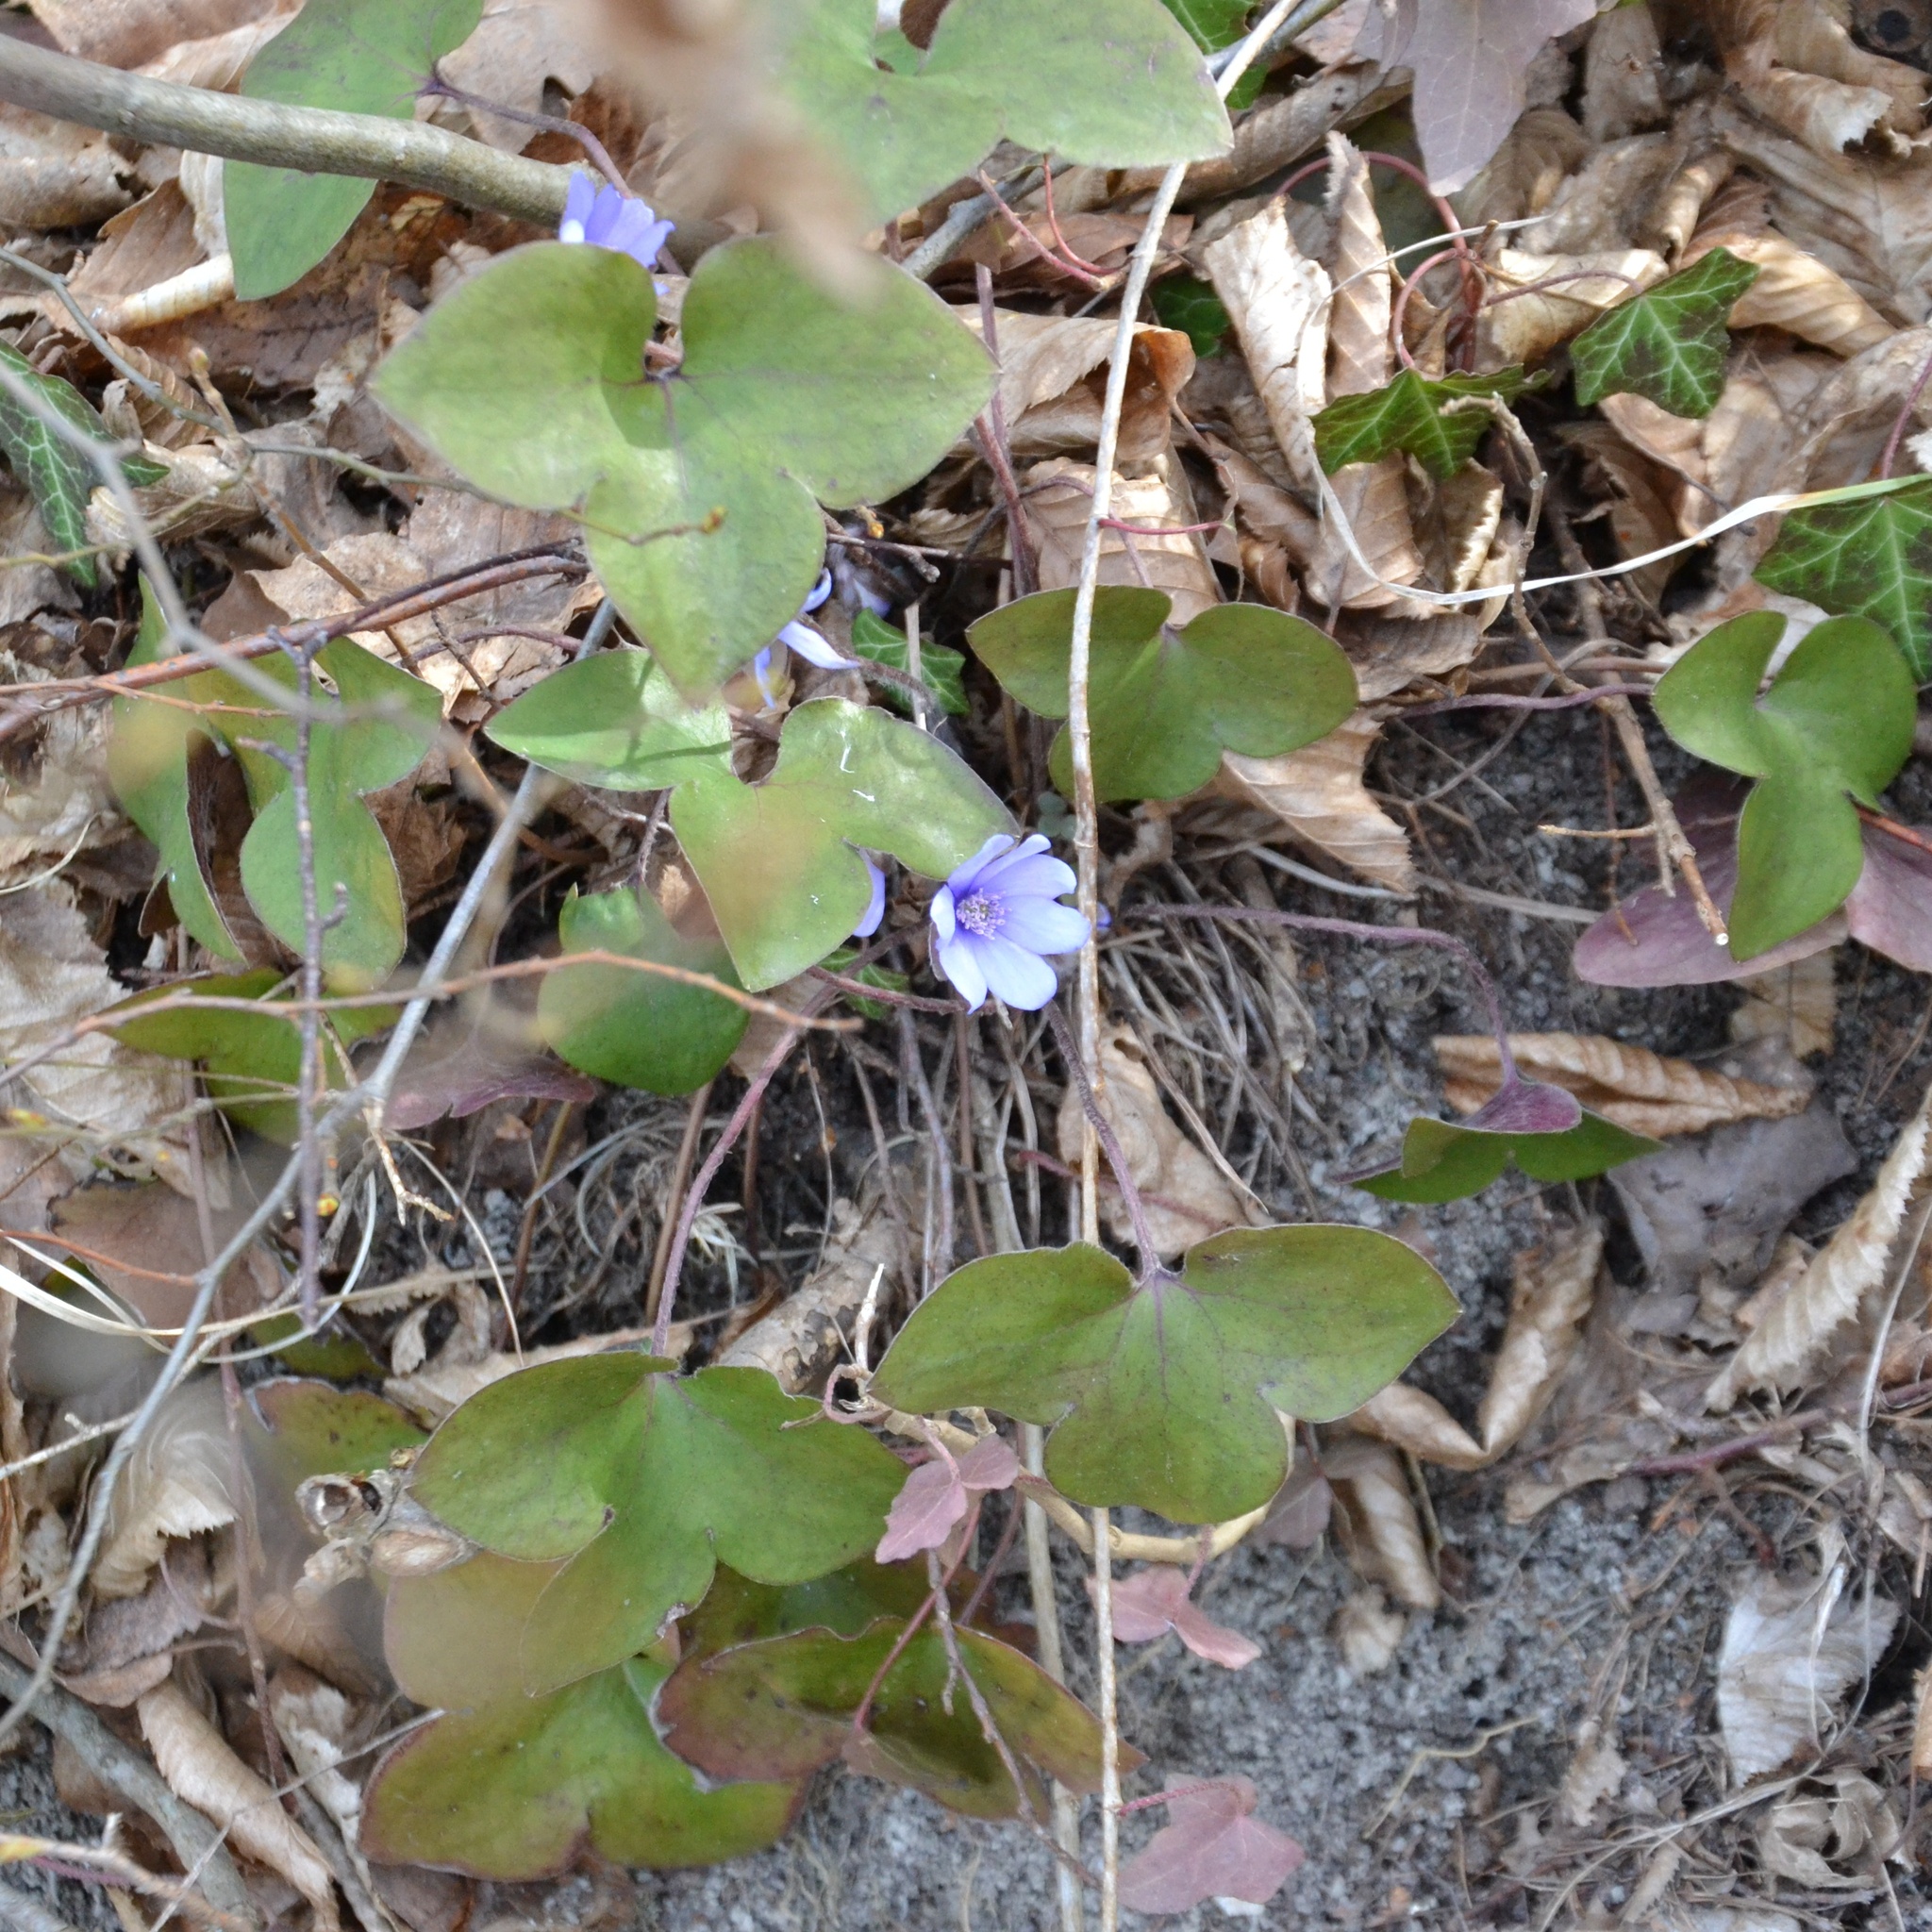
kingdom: Plantae
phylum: Tracheophyta
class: Magnoliopsida
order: Ranunculales
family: Ranunculaceae
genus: Hepatica
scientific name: Hepatica nobilis
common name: Liverleaf
